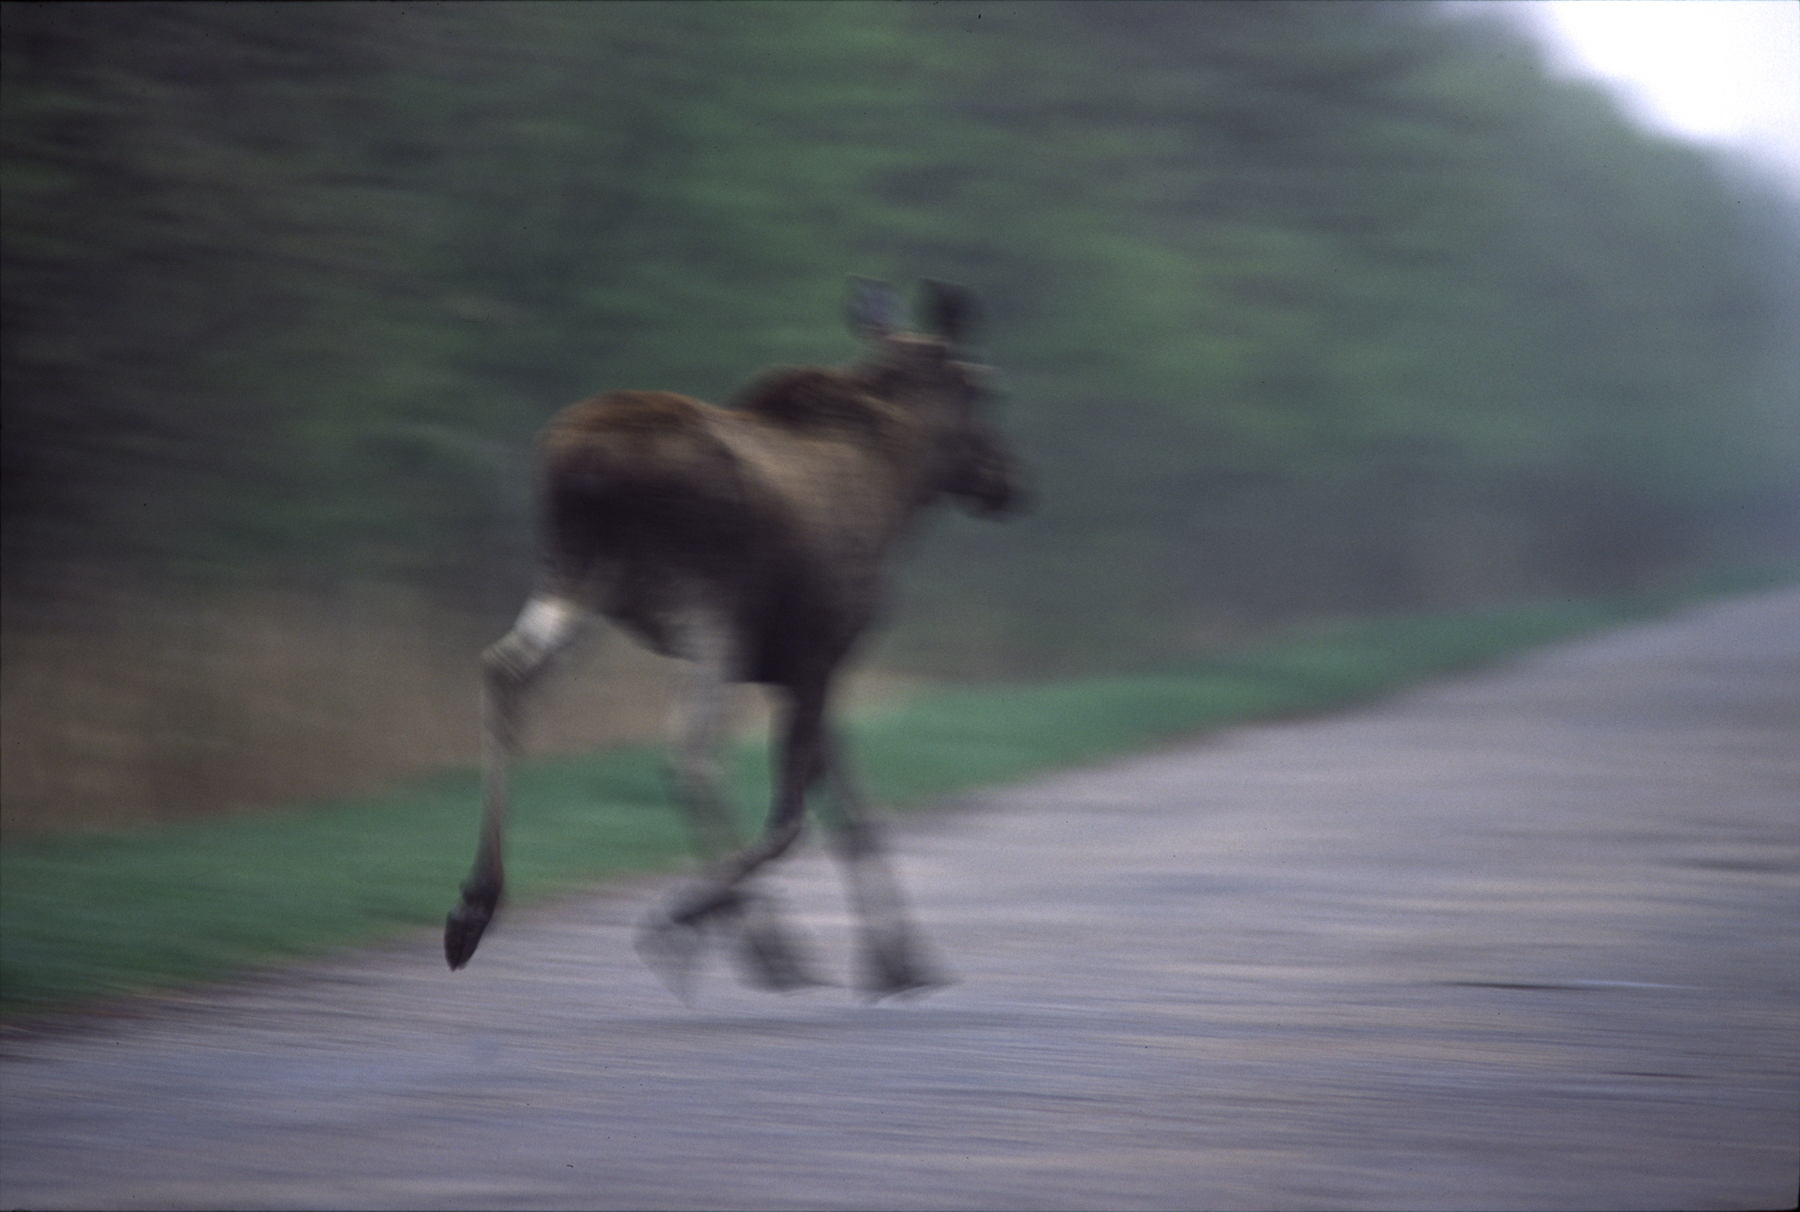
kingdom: Animalia
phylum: Chordata
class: Mammalia
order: Artiodactyla
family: Cervidae
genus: Alces
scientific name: Alces alces
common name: Moose
